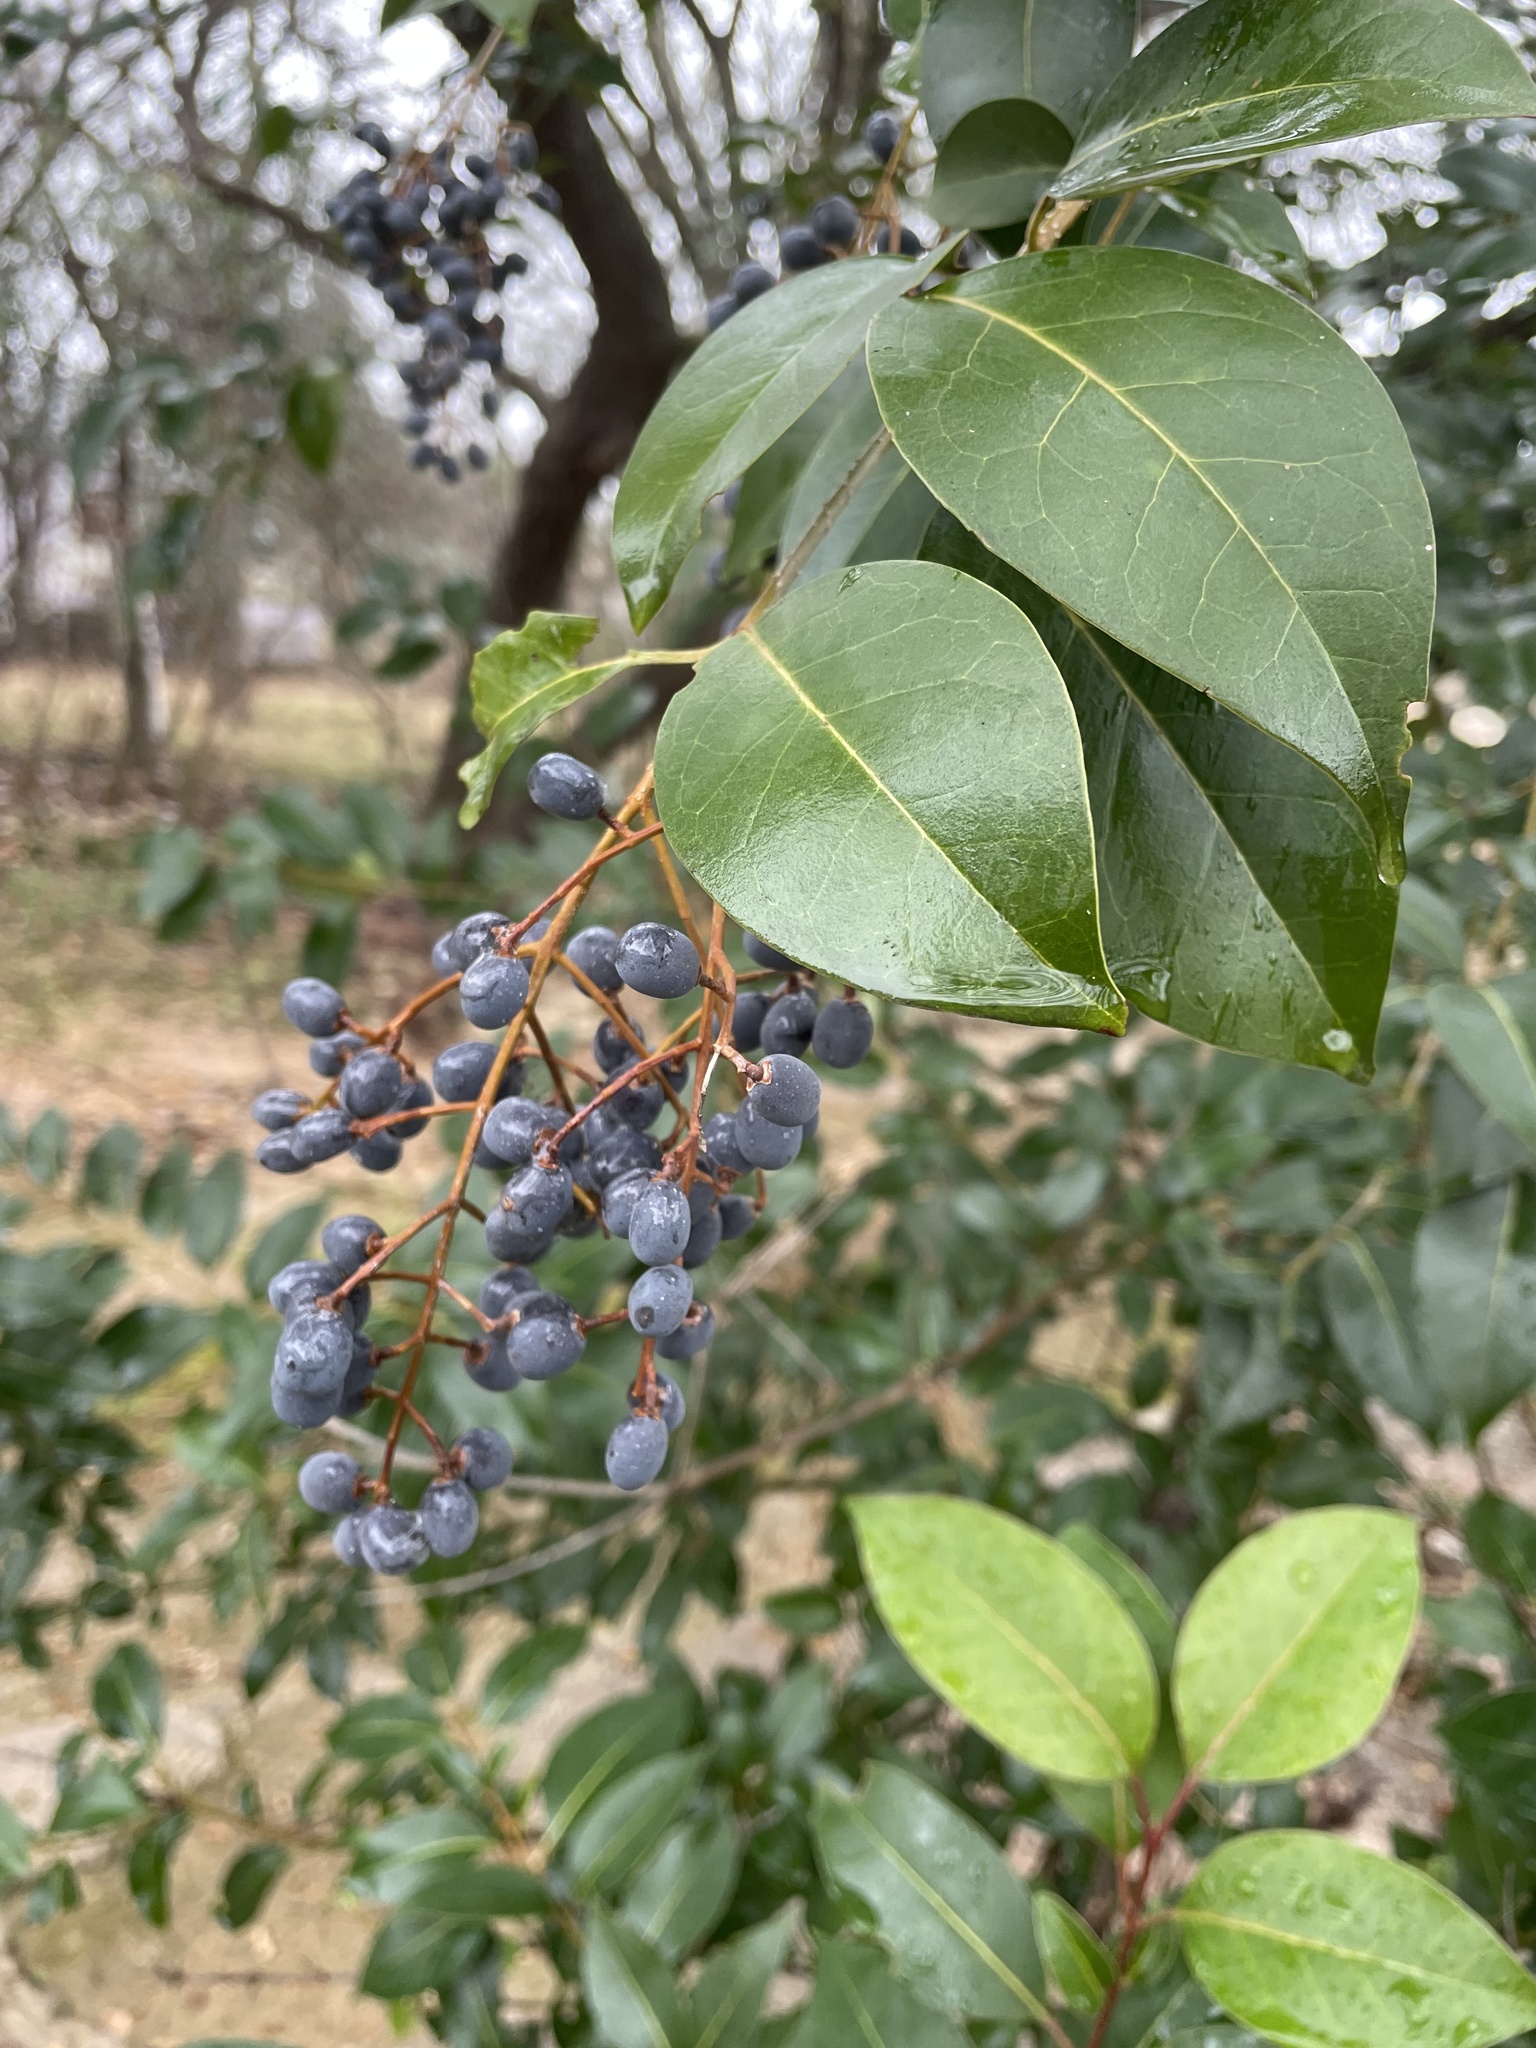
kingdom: Plantae
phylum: Tracheophyta
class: Magnoliopsida
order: Lamiales
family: Oleaceae
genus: Ligustrum
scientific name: Ligustrum lucidum
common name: Glossy privet
